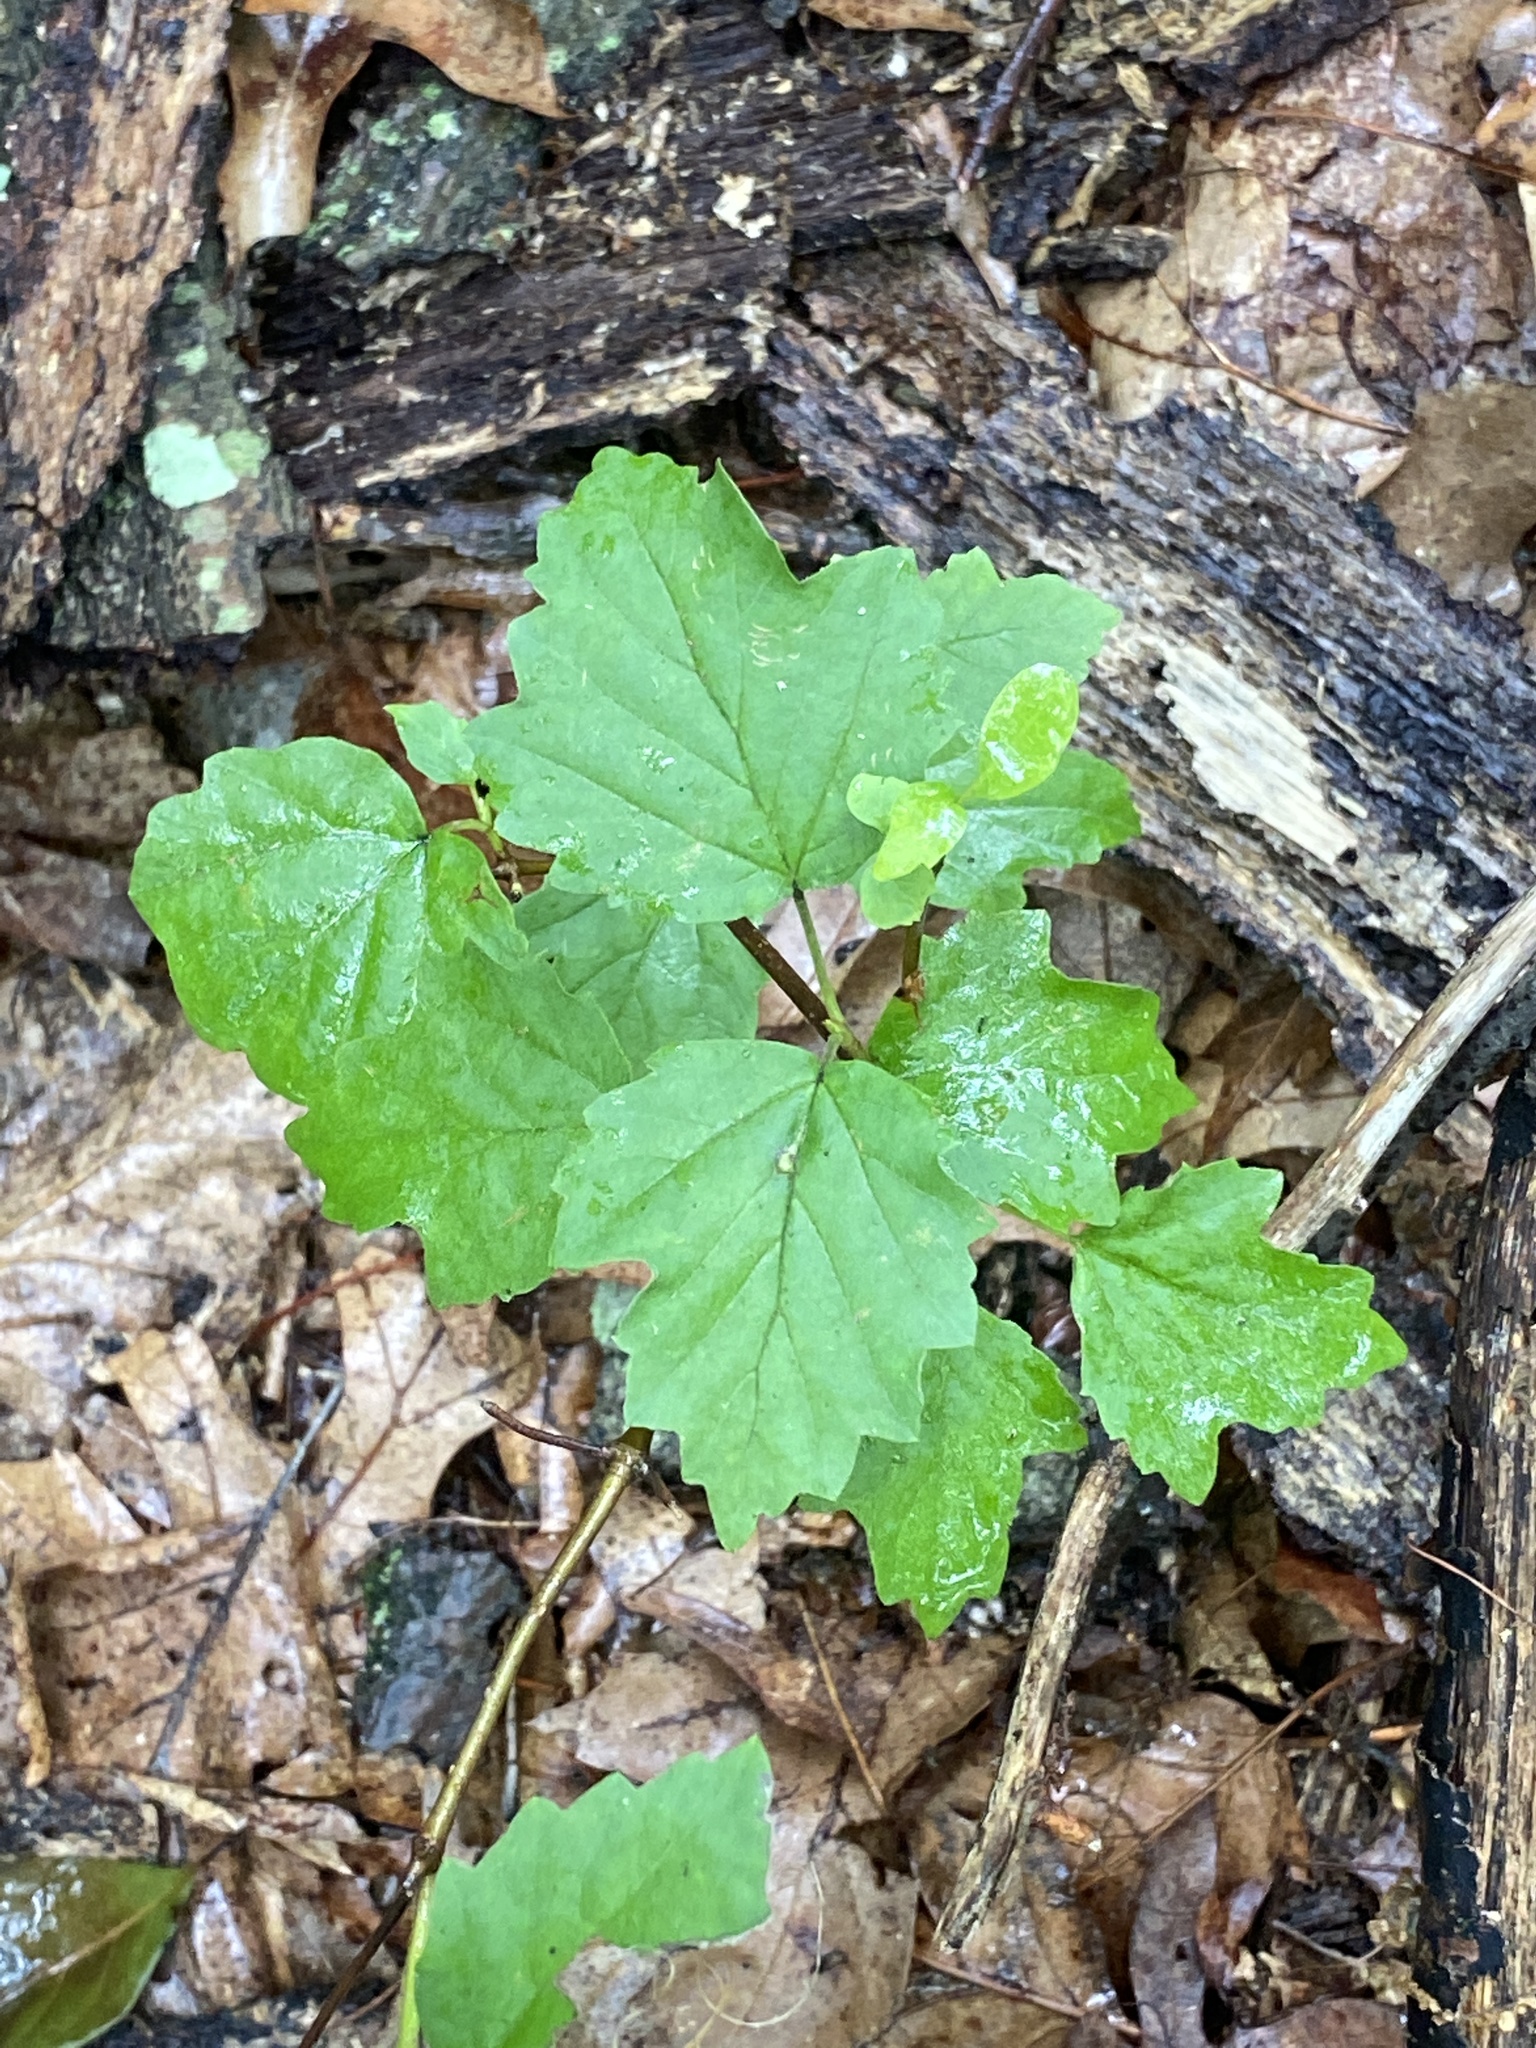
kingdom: Plantae
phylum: Tracheophyta
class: Magnoliopsida
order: Dipsacales
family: Viburnaceae
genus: Viburnum
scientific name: Viburnum acerifolium
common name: Dockmackie
